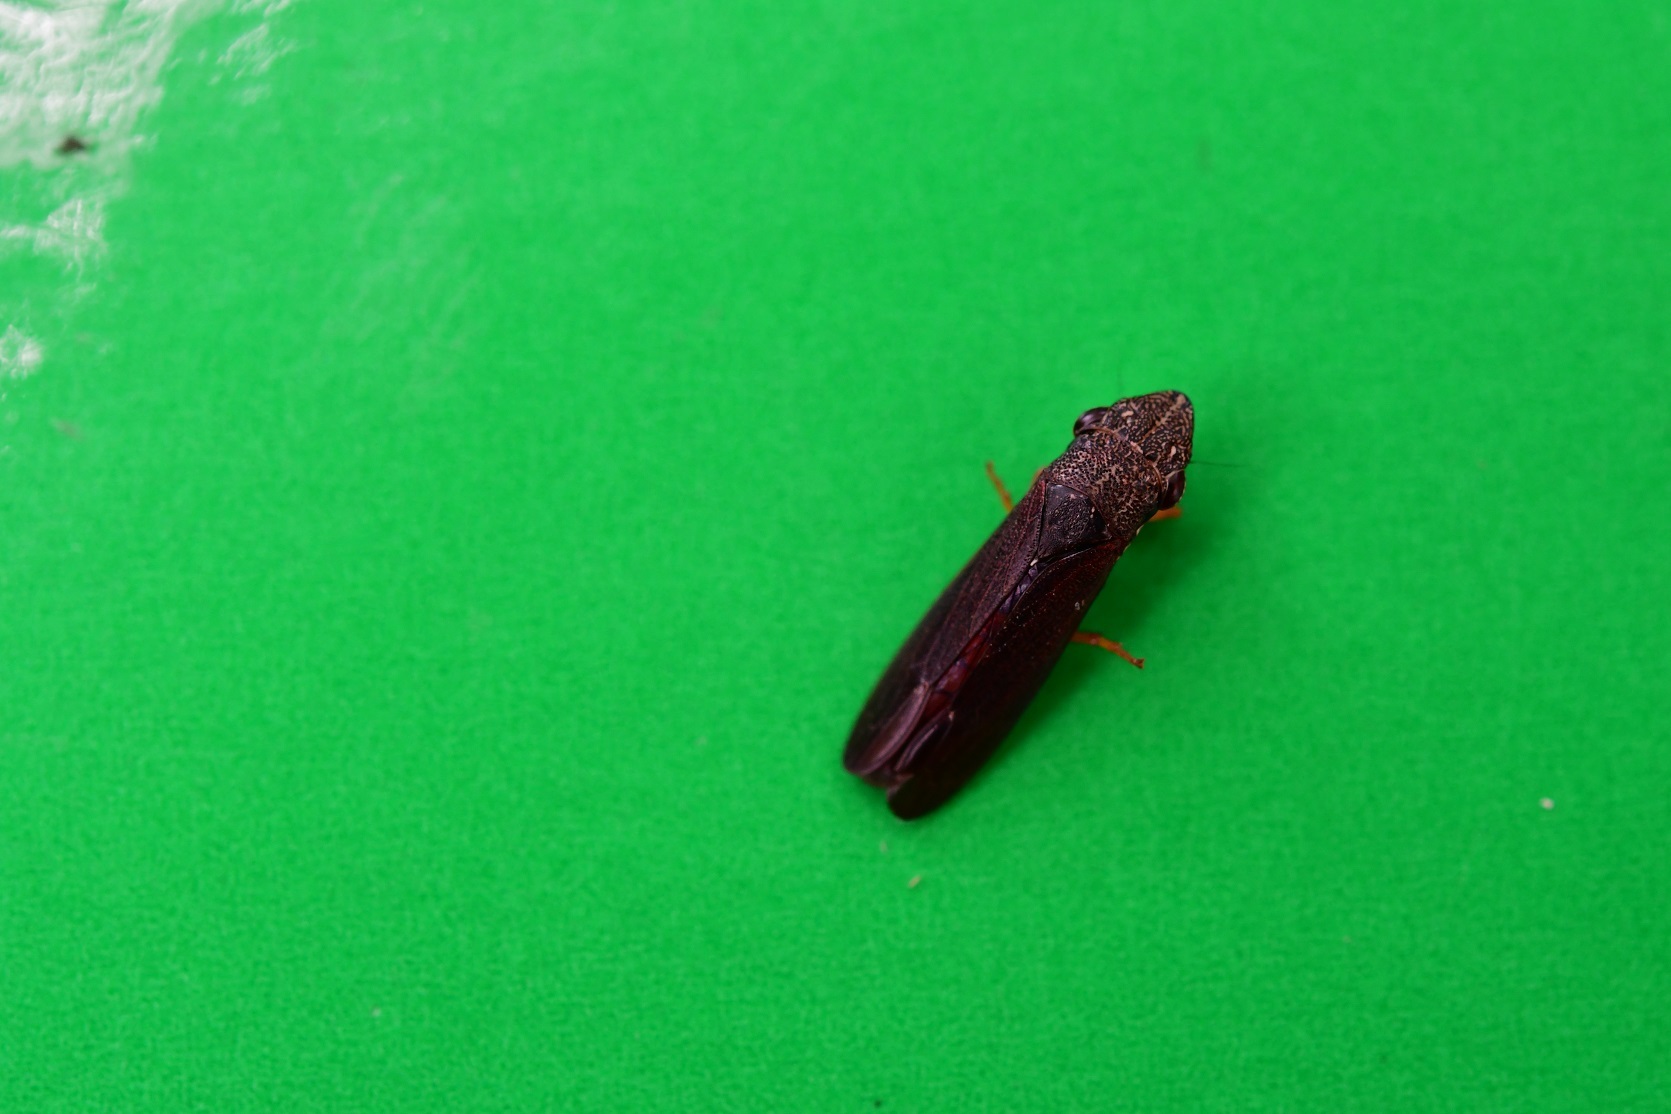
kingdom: Animalia
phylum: Arthropoda
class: Insecta
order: Hemiptera
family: Cicadellidae
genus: Homalodisca
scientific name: Homalodisca insolita
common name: Johnson grass sharpshooter
